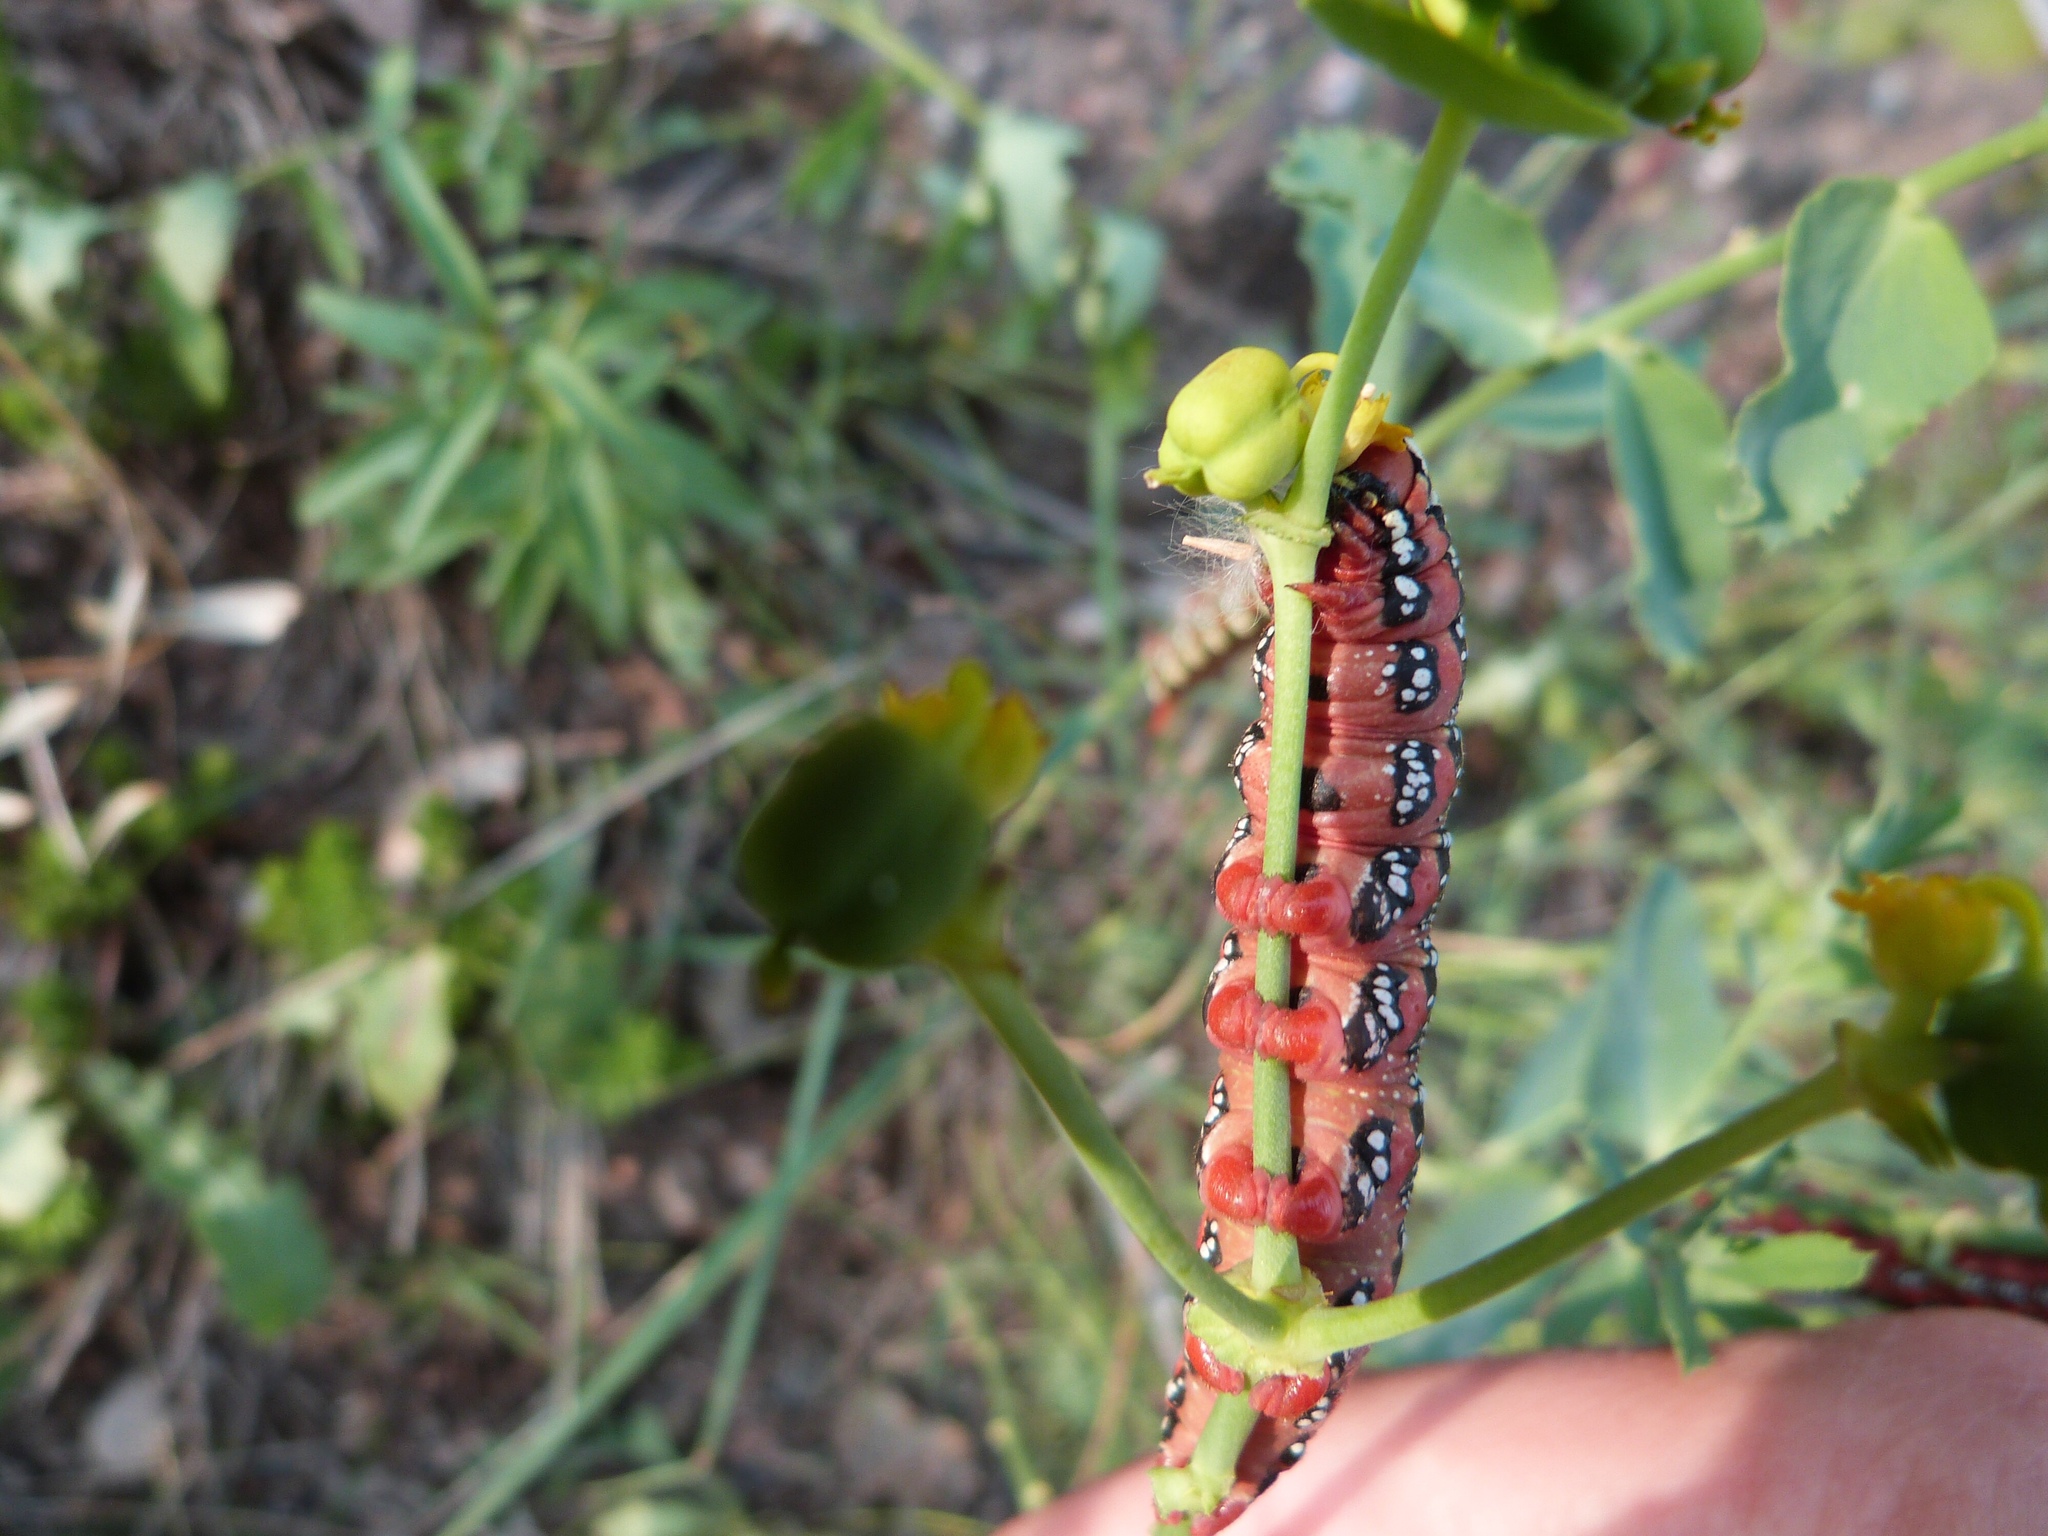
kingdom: Animalia
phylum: Arthropoda
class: Insecta
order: Lepidoptera
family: Sphingidae
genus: Hyles
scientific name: Hyles euphorbiae
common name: Spurge hawk-moth
